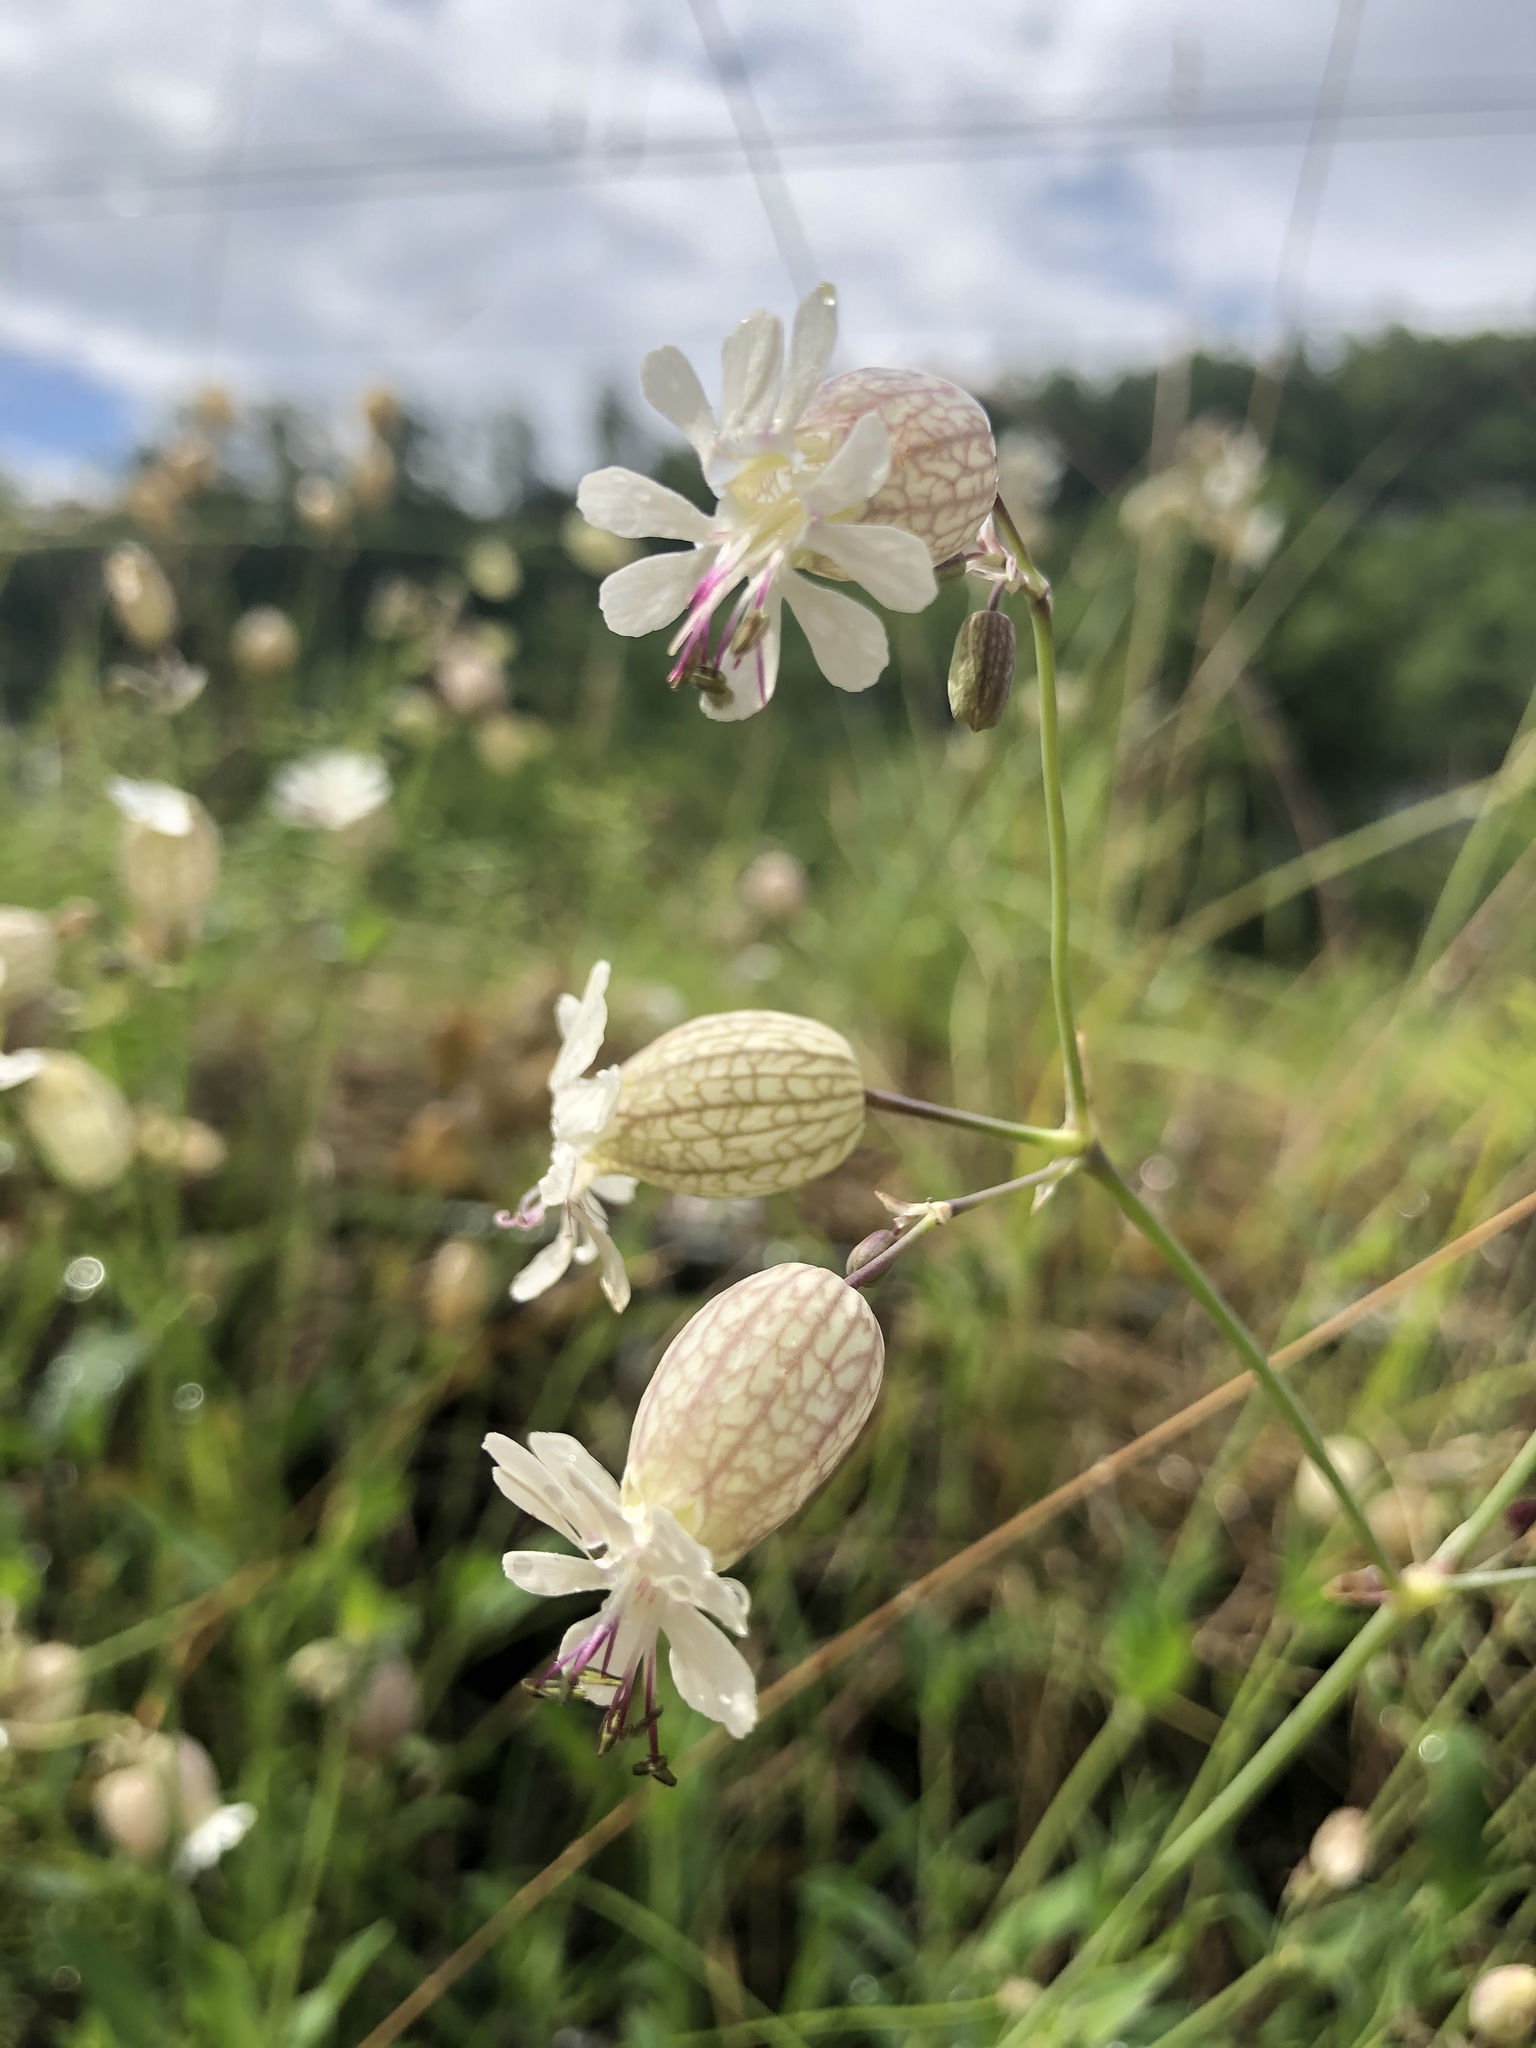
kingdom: Plantae
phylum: Tracheophyta
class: Magnoliopsida
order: Caryophyllales
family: Caryophyllaceae
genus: Silene
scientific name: Silene vulgaris
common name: Bladder campion
